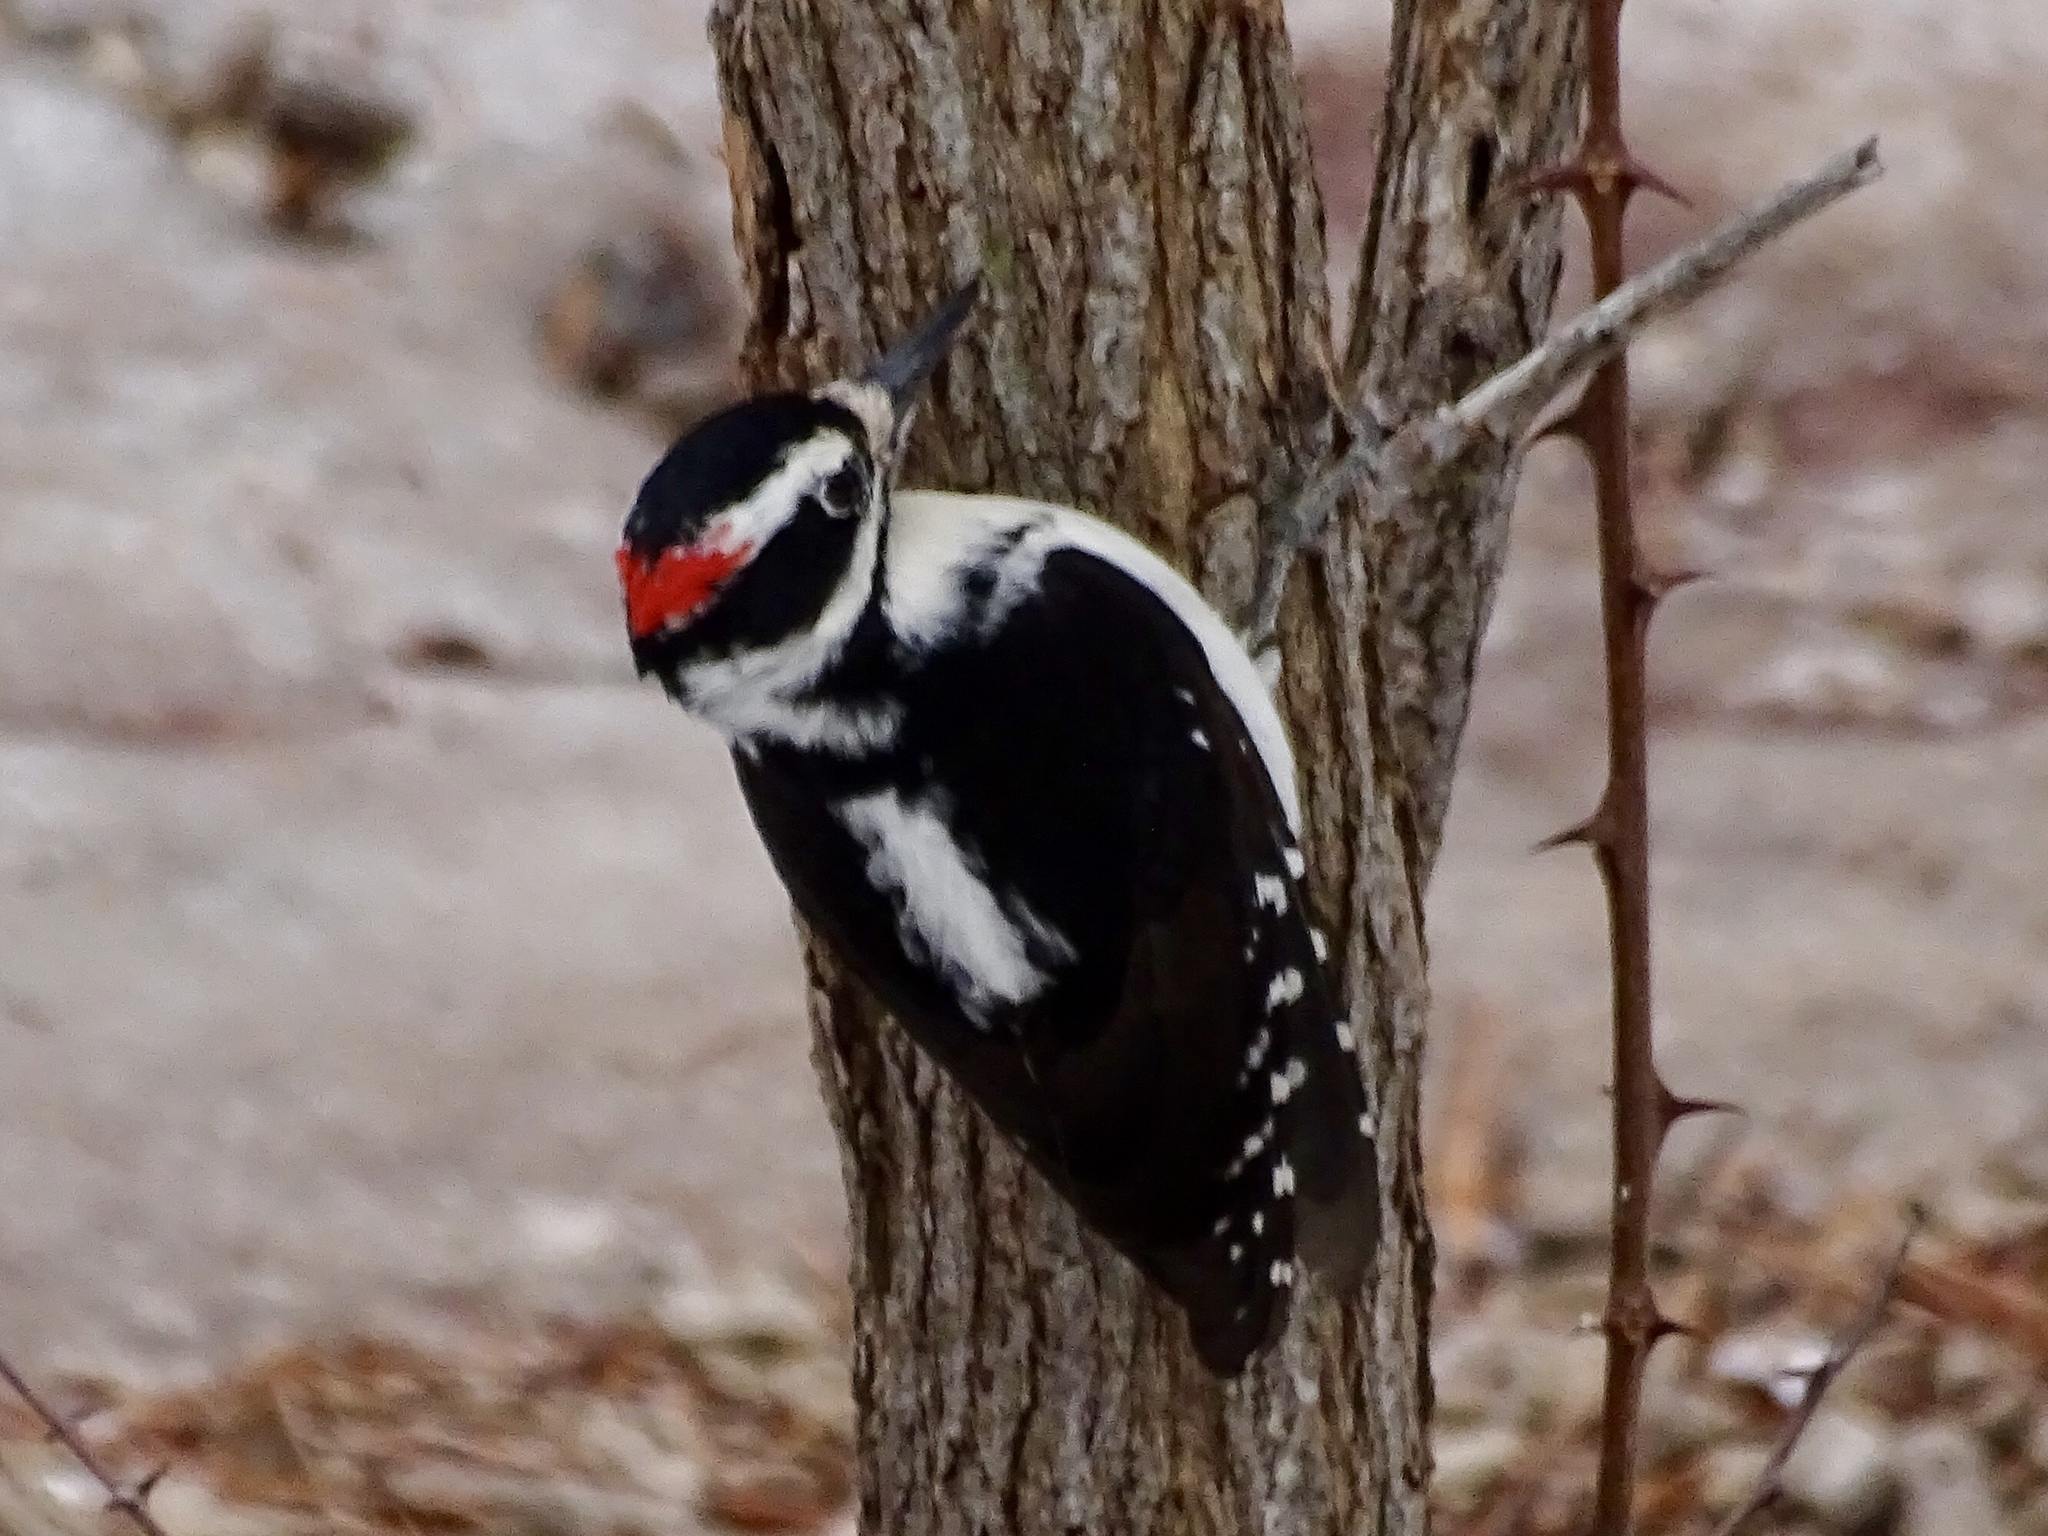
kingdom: Animalia
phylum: Chordata
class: Aves
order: Piciformes
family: Picidae
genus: Leuconotopicus
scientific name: Leuconotopicus villosus
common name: Hairy woodpecker
